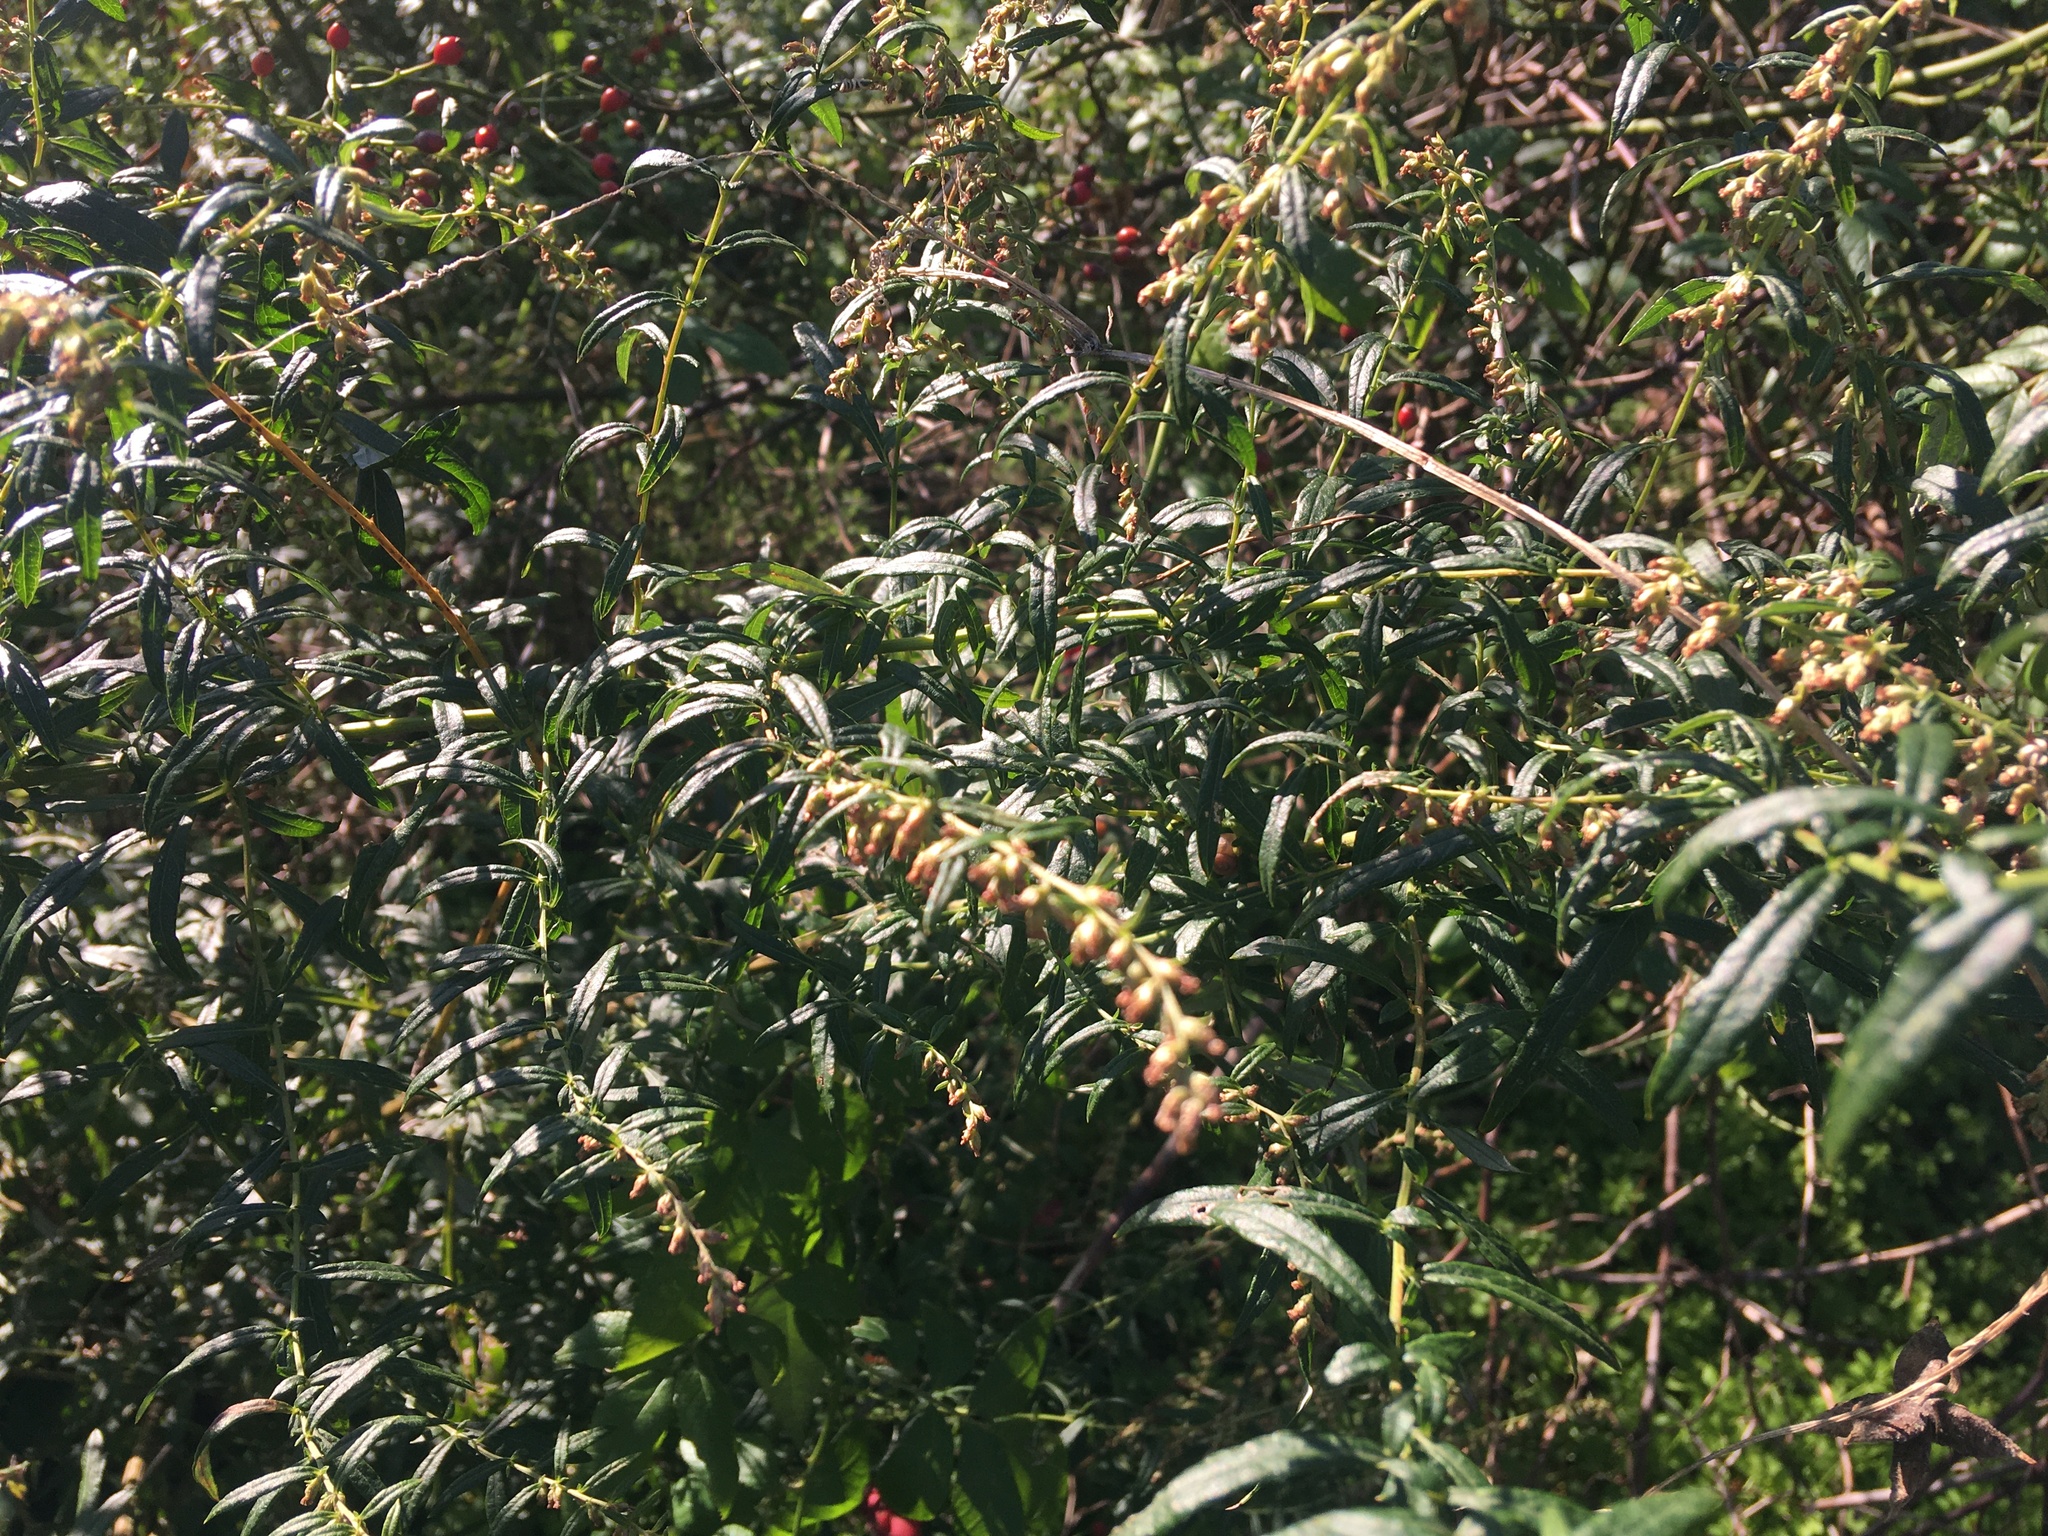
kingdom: Plantae
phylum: Tracheophyta
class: Magnoliopsida
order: Asterales
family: Asteraceae
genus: Artemisia
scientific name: Artemisia vulgaris
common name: Mugwort
